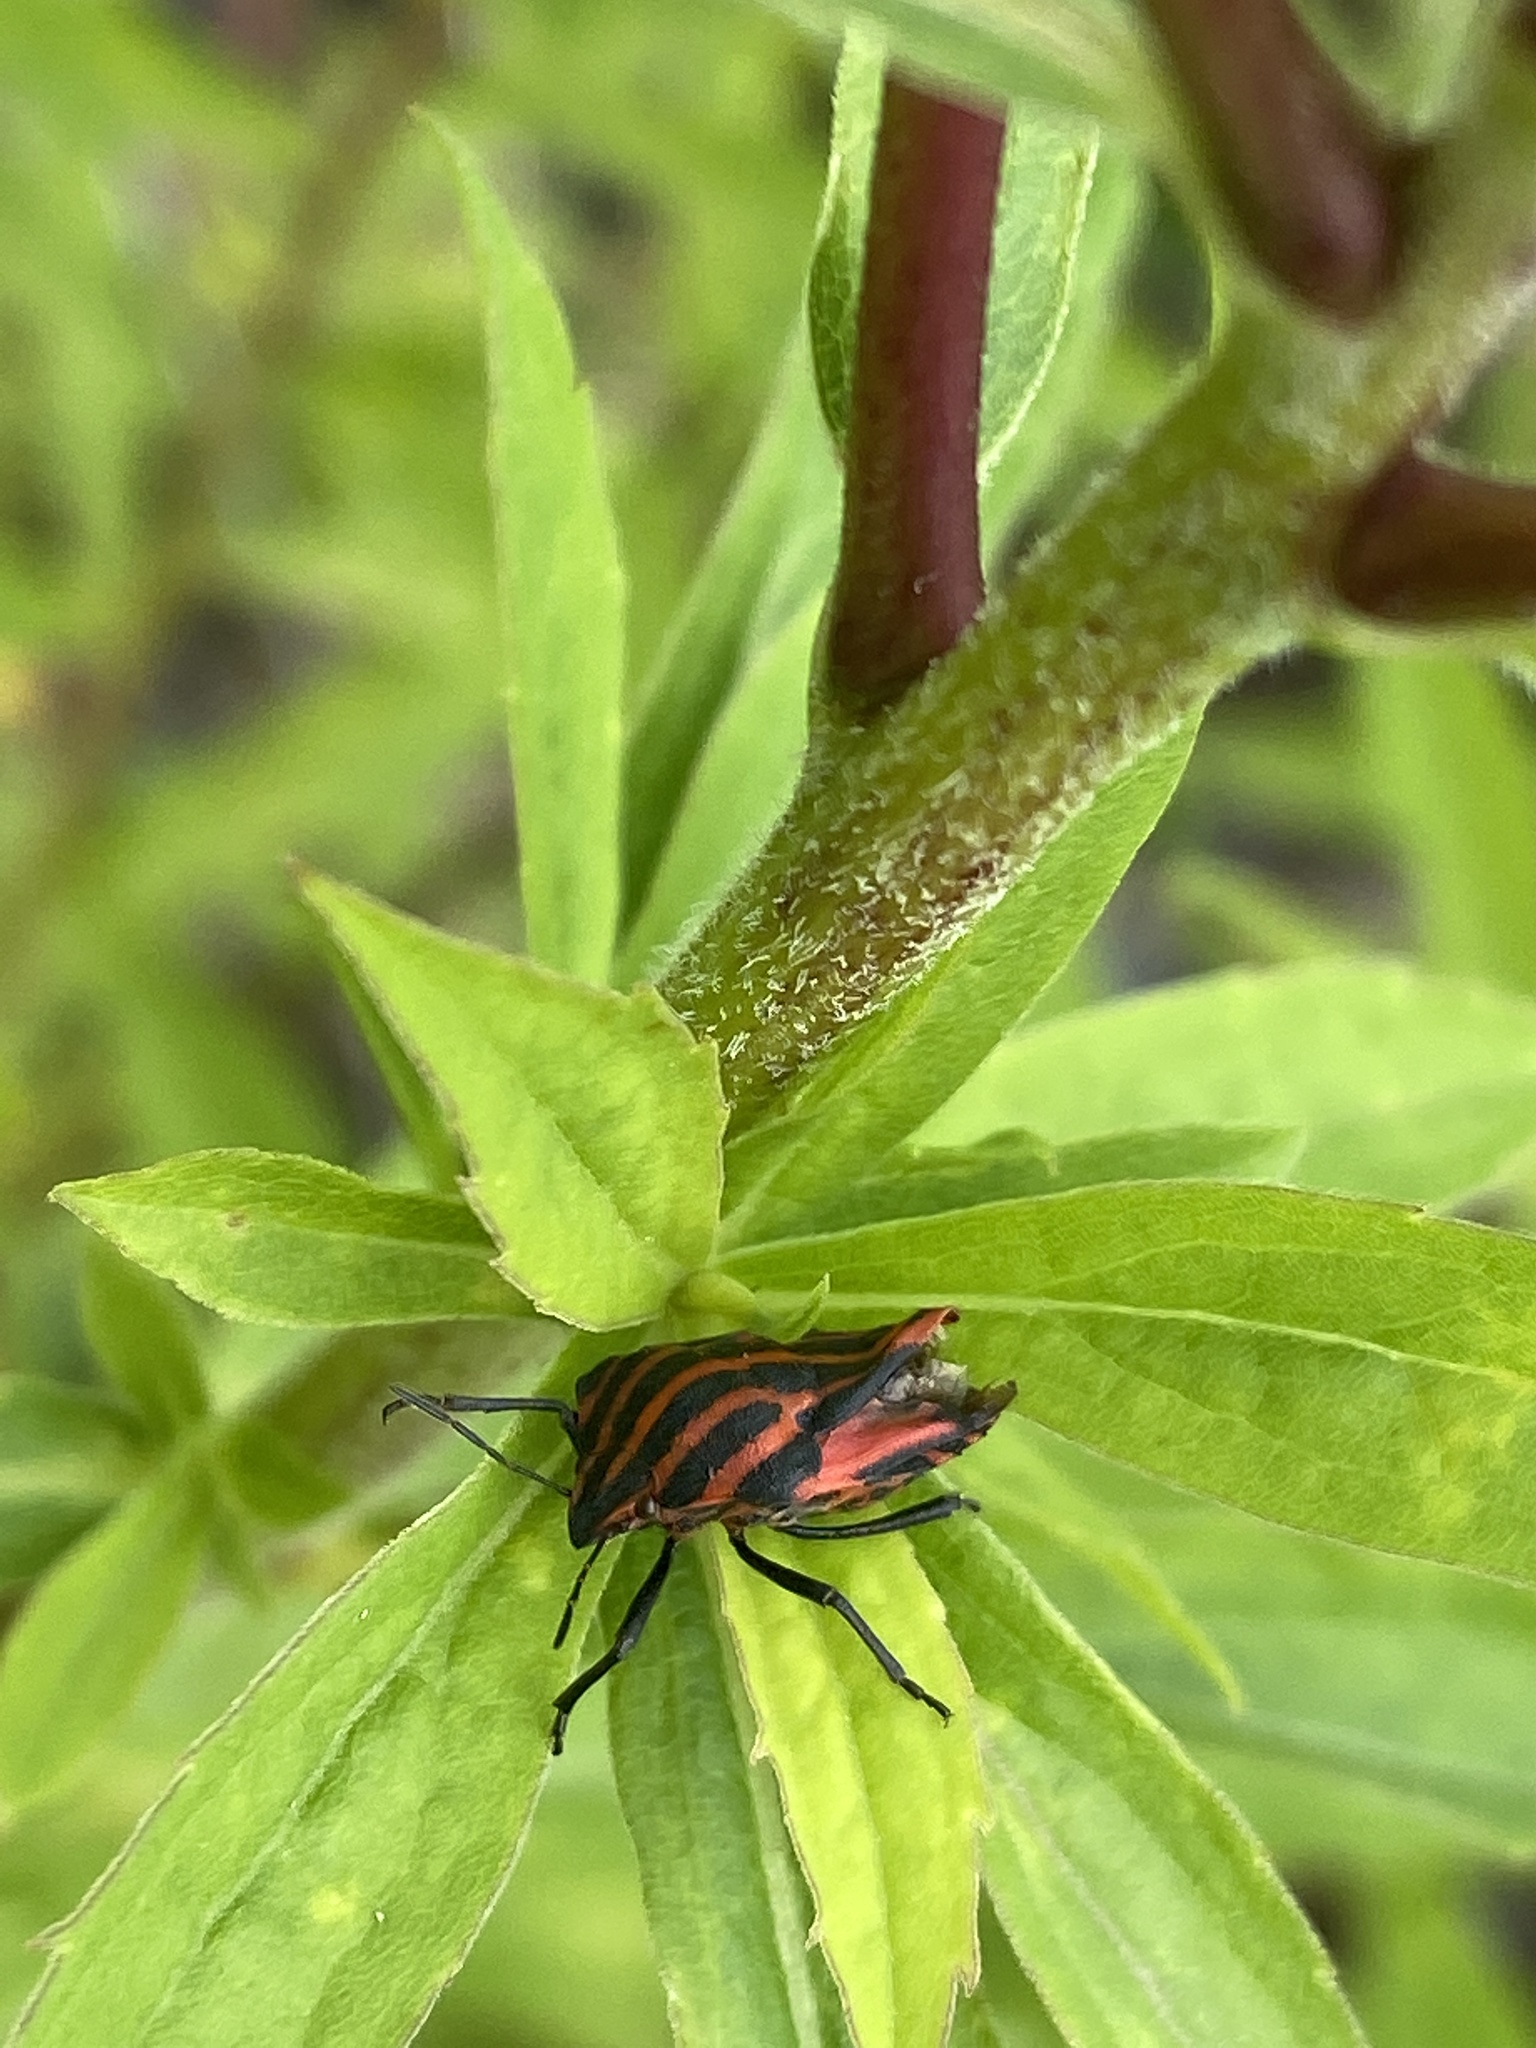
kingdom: Animalia
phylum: Arthropoda
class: Insecta
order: Hemiptera
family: Pentatomidae
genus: Graphosoma
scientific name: Graphosoma italicum
